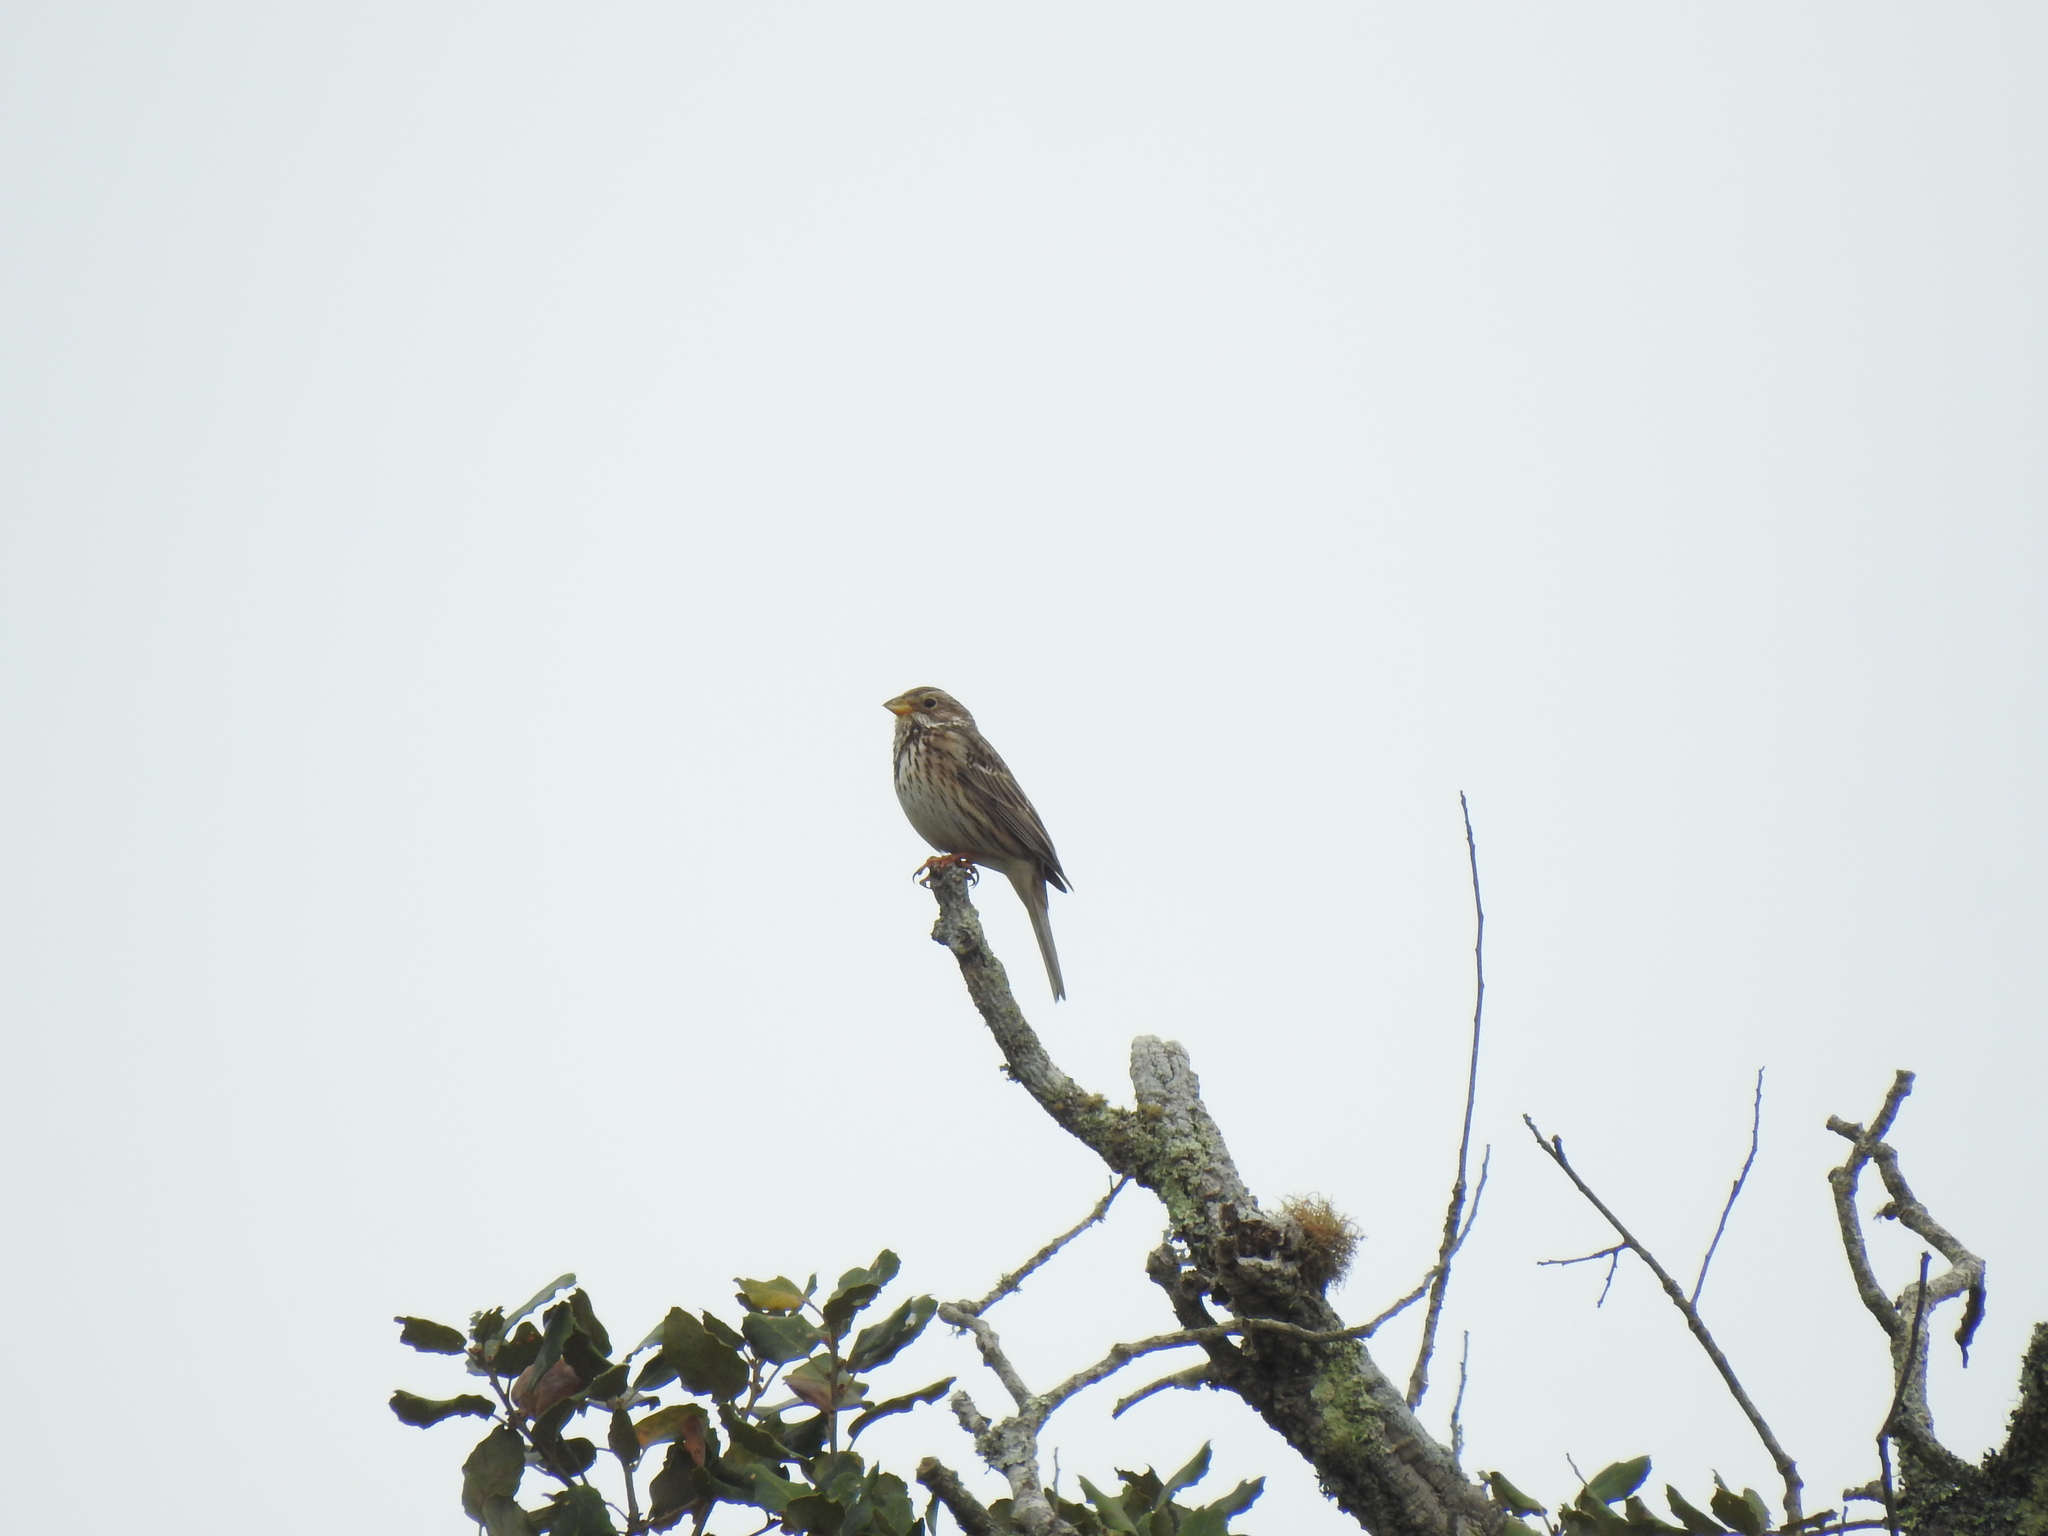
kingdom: Animalia
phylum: Chordata
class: Aves
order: Passeriformes
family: Emberizidae
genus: Emberiza
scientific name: Emberiza calandra
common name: Corn bunting
